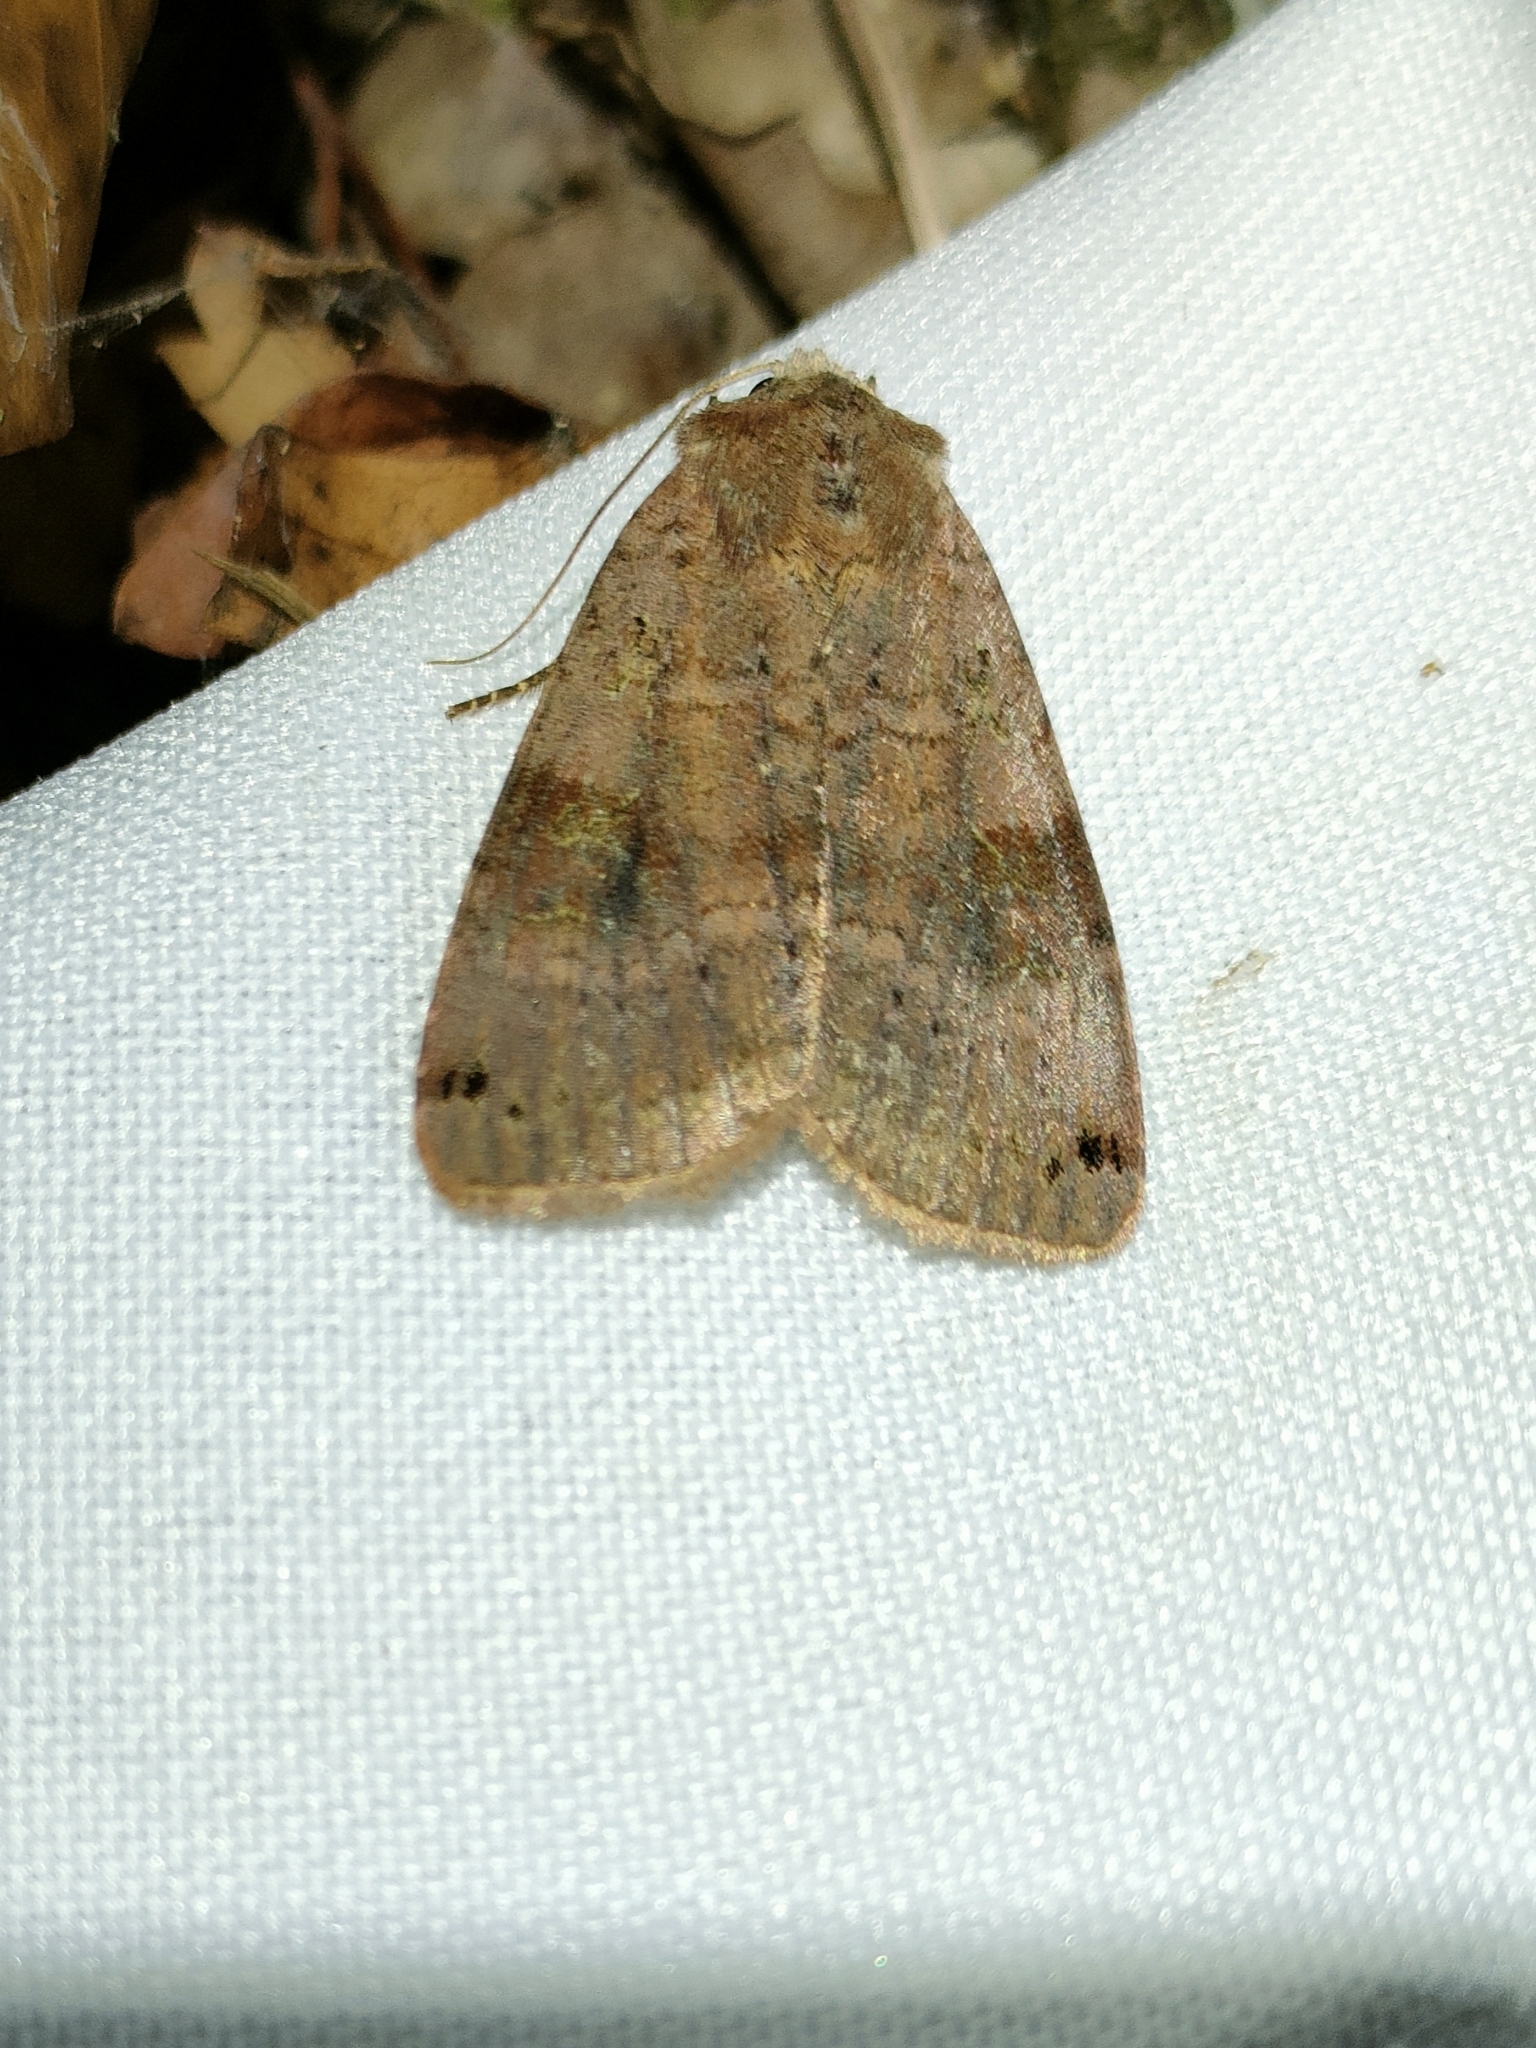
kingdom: Animalia
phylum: Arthropoda
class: Insecta
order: Lepidoptera
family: Noctuidae
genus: Xestia
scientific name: Xestia baja
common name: Dotted clay
